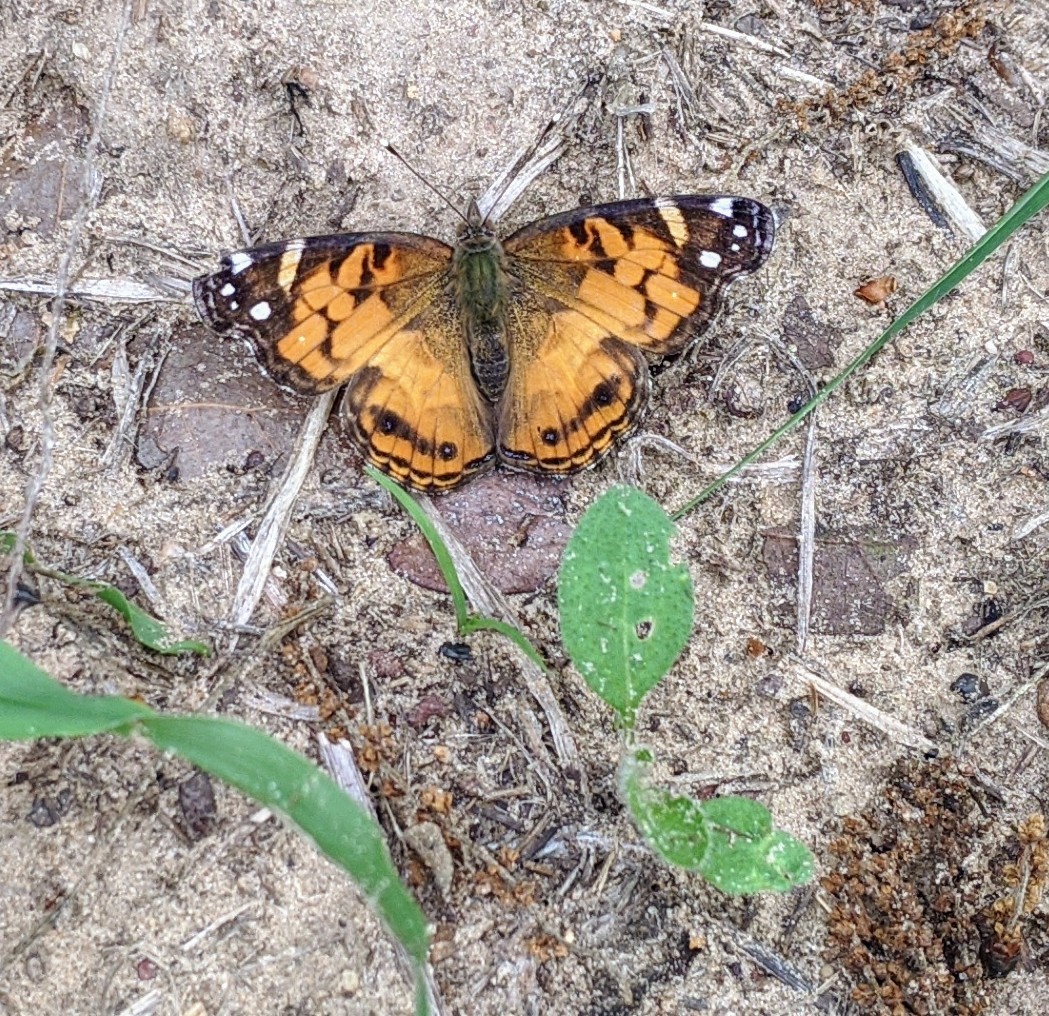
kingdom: Animalia
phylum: Arthropoda
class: Insecta
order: Lepidoptera
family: Nymphalidae
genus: Vanessa
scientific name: Vanessa virginiensis
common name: American lady
